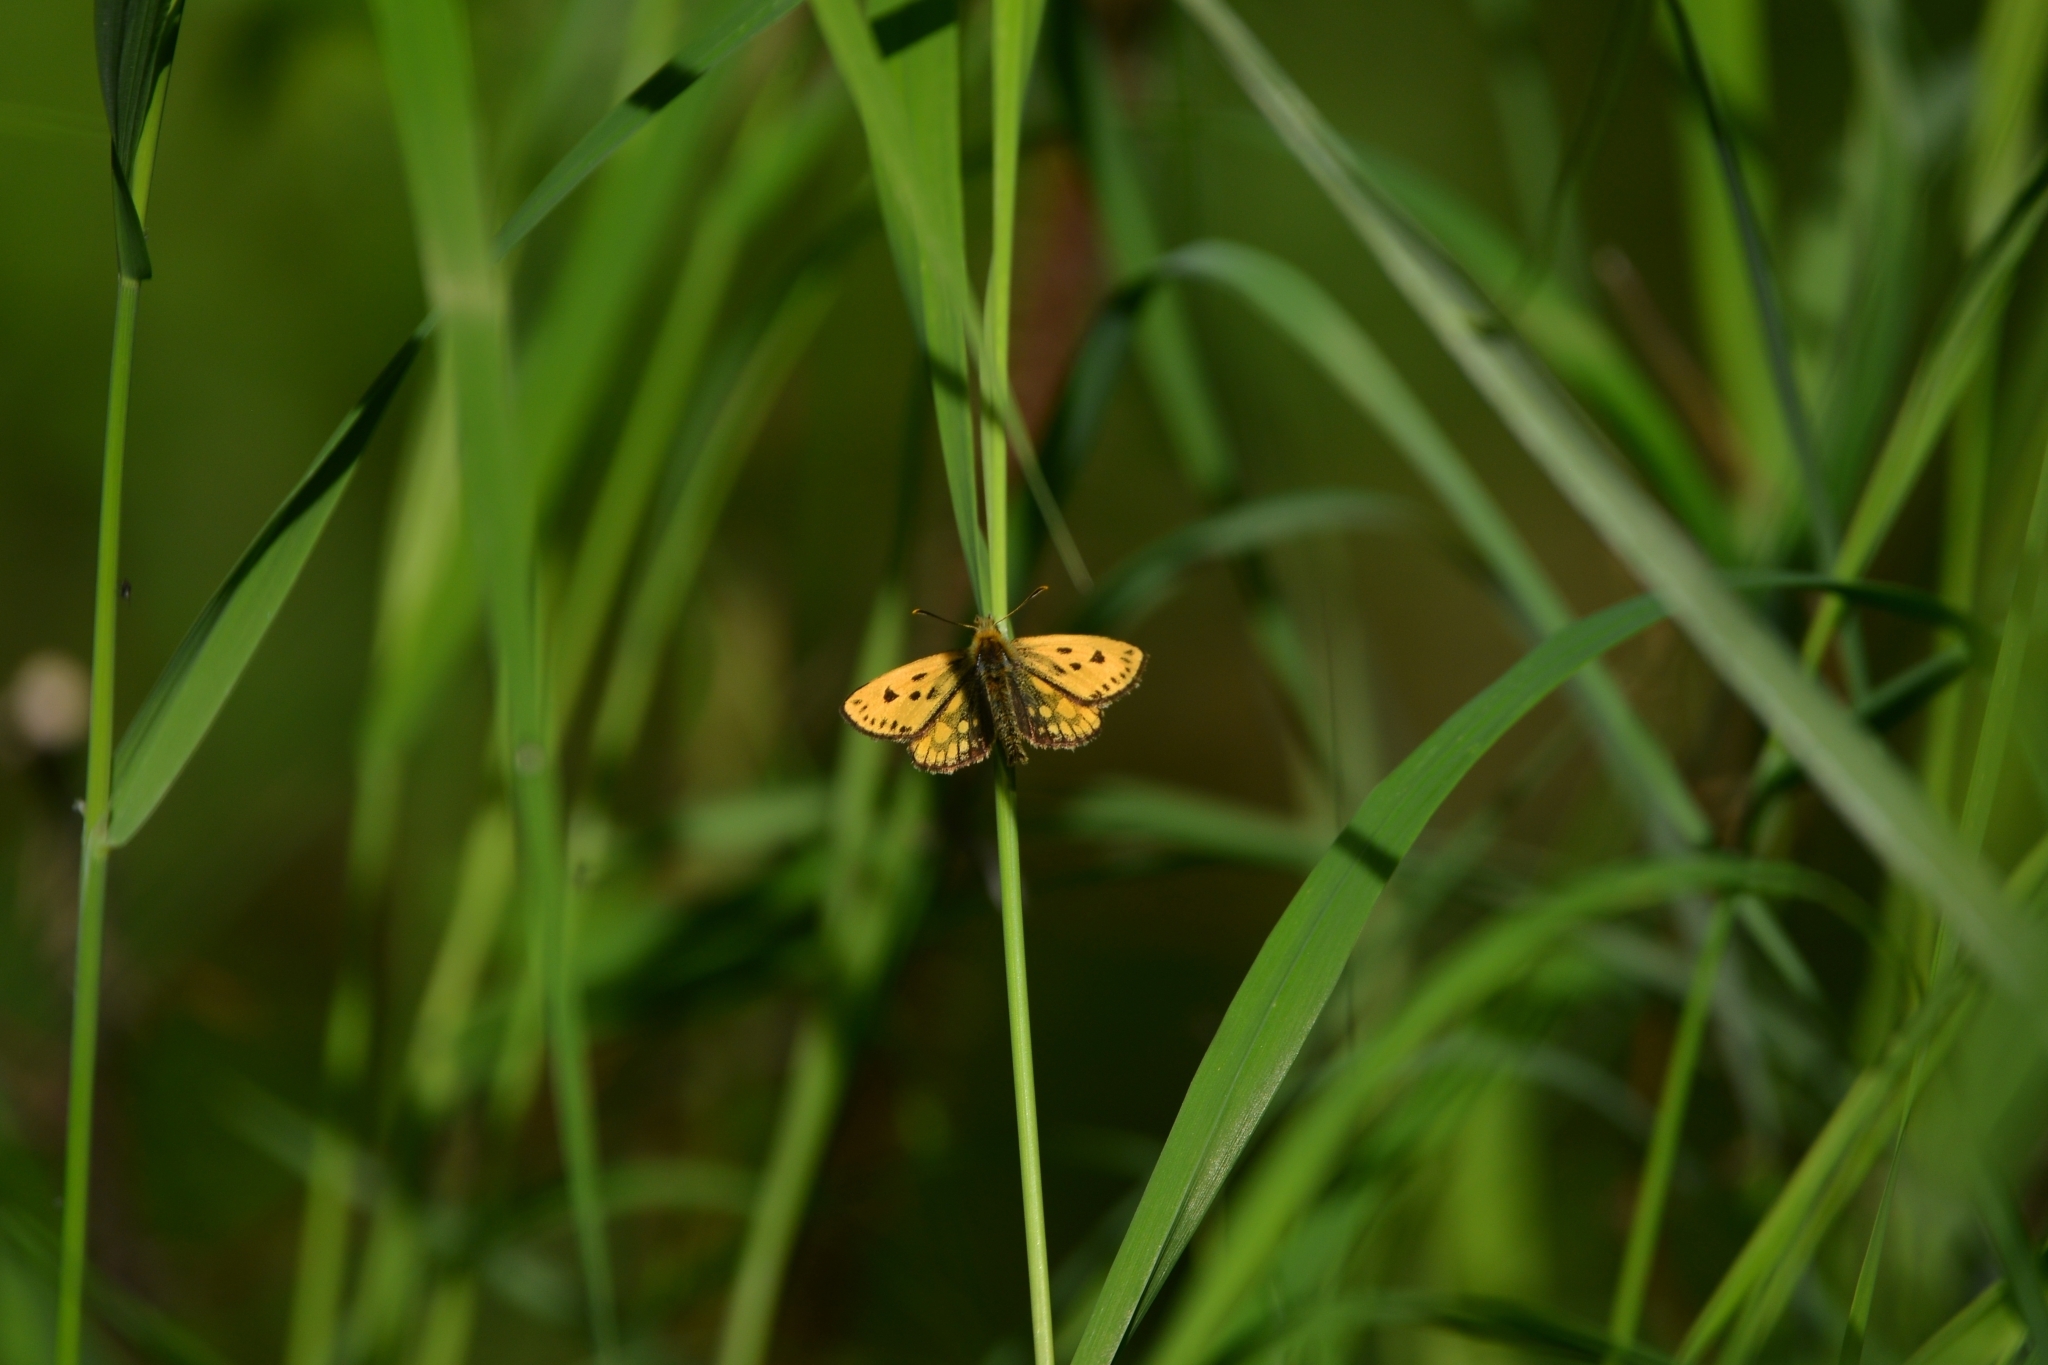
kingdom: Animalia
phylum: Arthropoda
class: Insecta
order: Lepidoptera
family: Hesperiidae
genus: Carterocephalus
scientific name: Carterocephalus silvicola
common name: Northern chequered skipper
